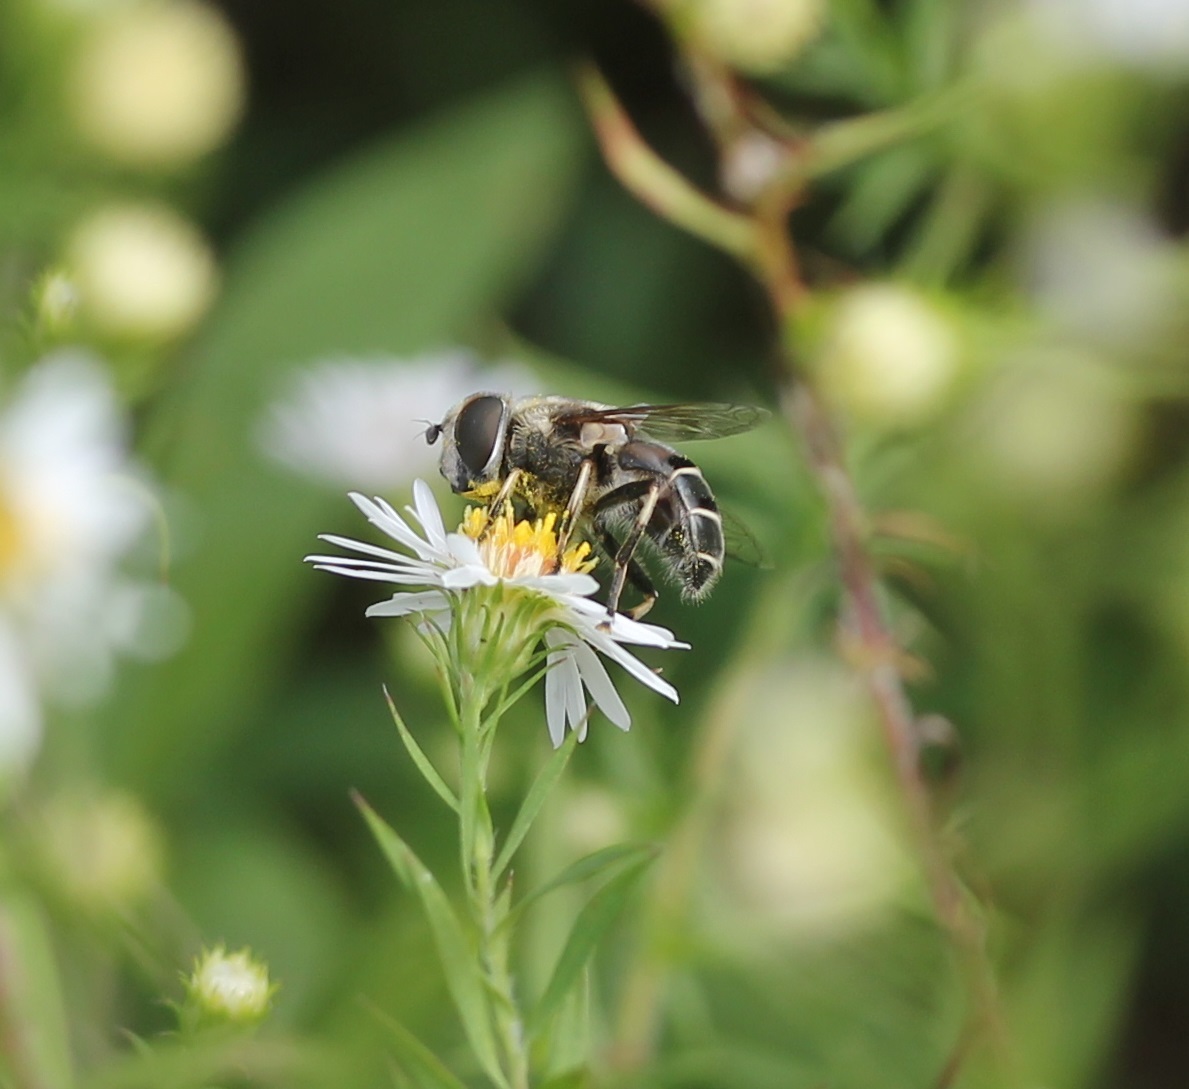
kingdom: Animalia
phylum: Arthropoda
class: Insecta
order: Diptera
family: Syrphidae
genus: Eristalis
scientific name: Eristalis dimidiata
